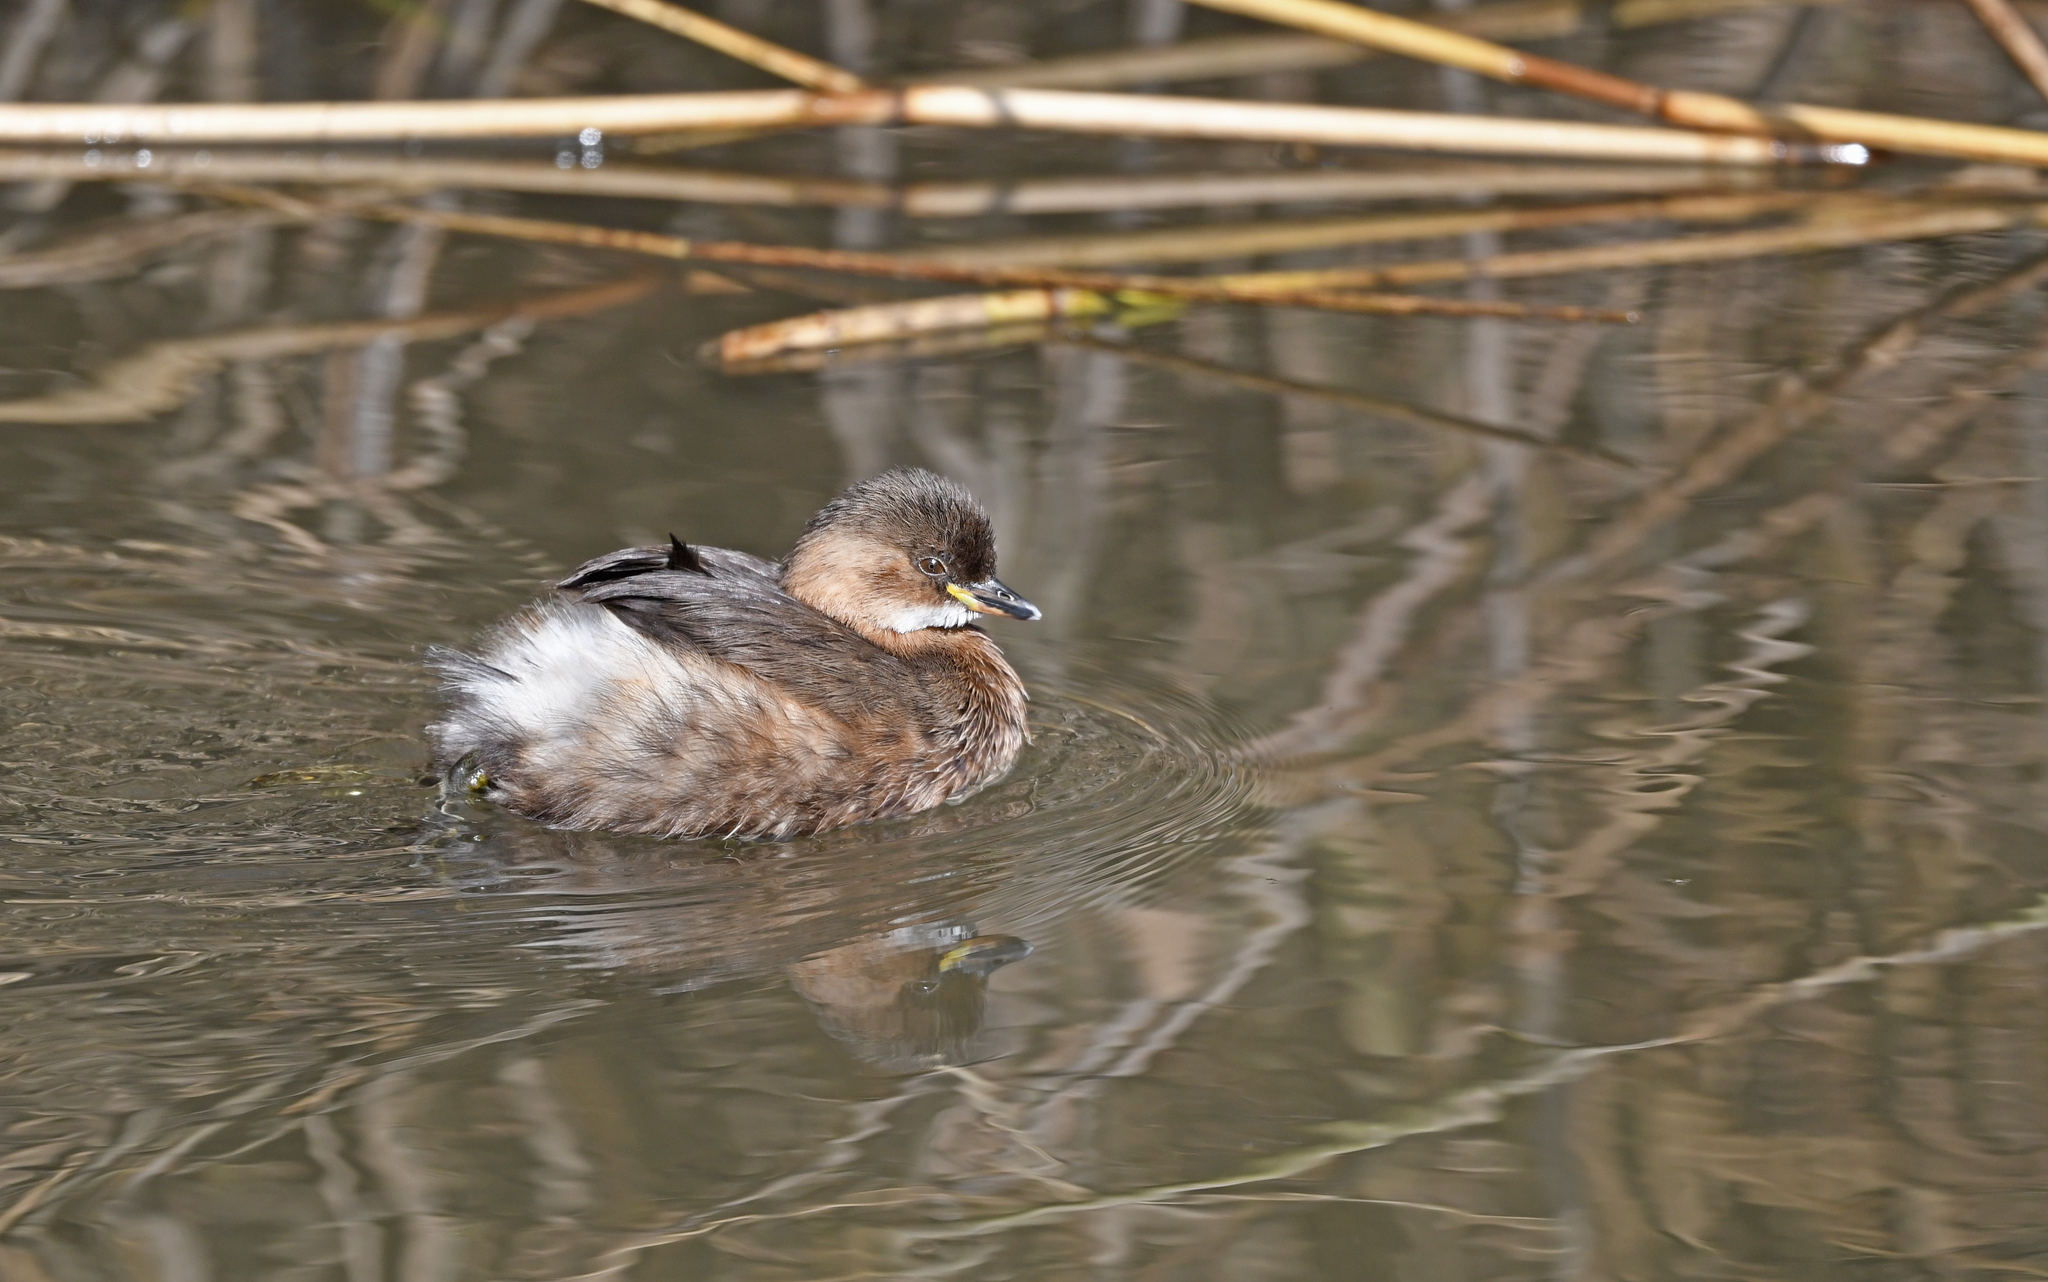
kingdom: Animalia
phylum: Chordata
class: Aves
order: Podicipediformes
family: Podicipedidae
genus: Tachybaptus
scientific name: Tachybaptus ruficollis
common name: Little grebe
